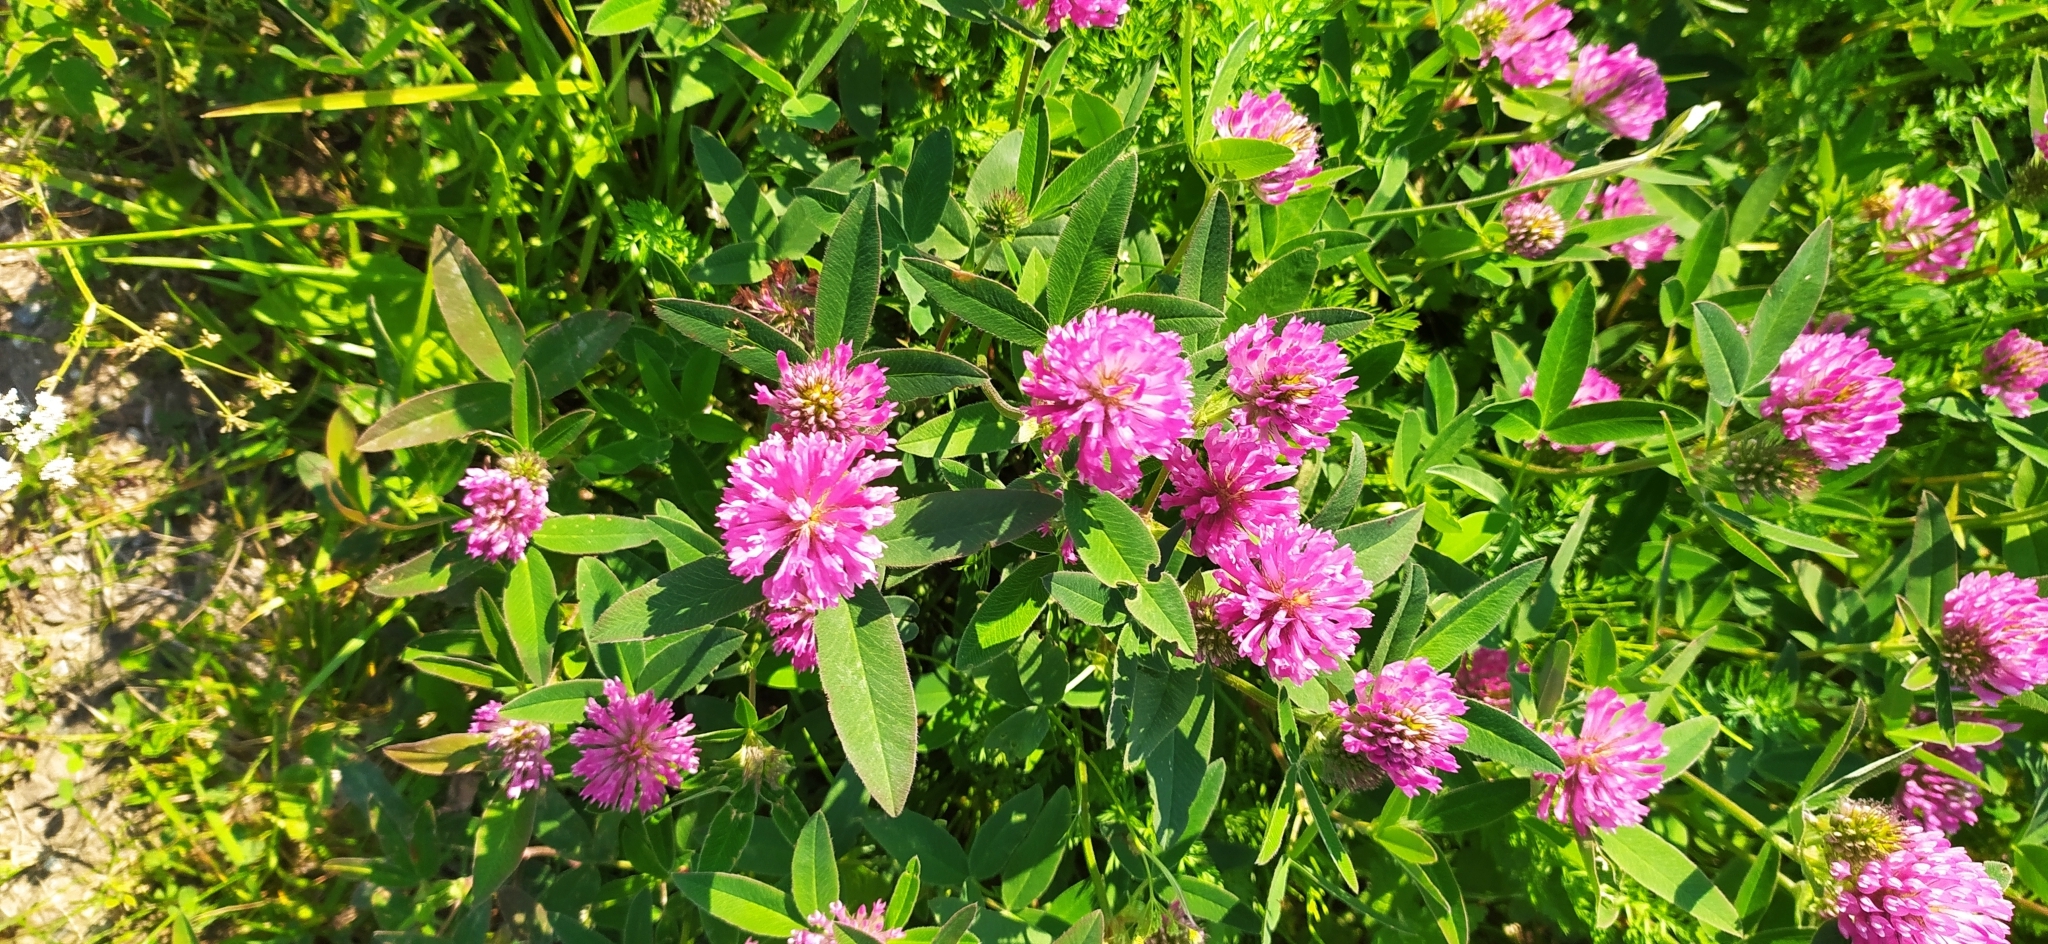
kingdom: Plantae
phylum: Tracheophyta
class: Magnoliopsida
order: Fabales
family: Fabaceae
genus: Trifolium
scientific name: Trifolium medium
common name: Zigzag clover
